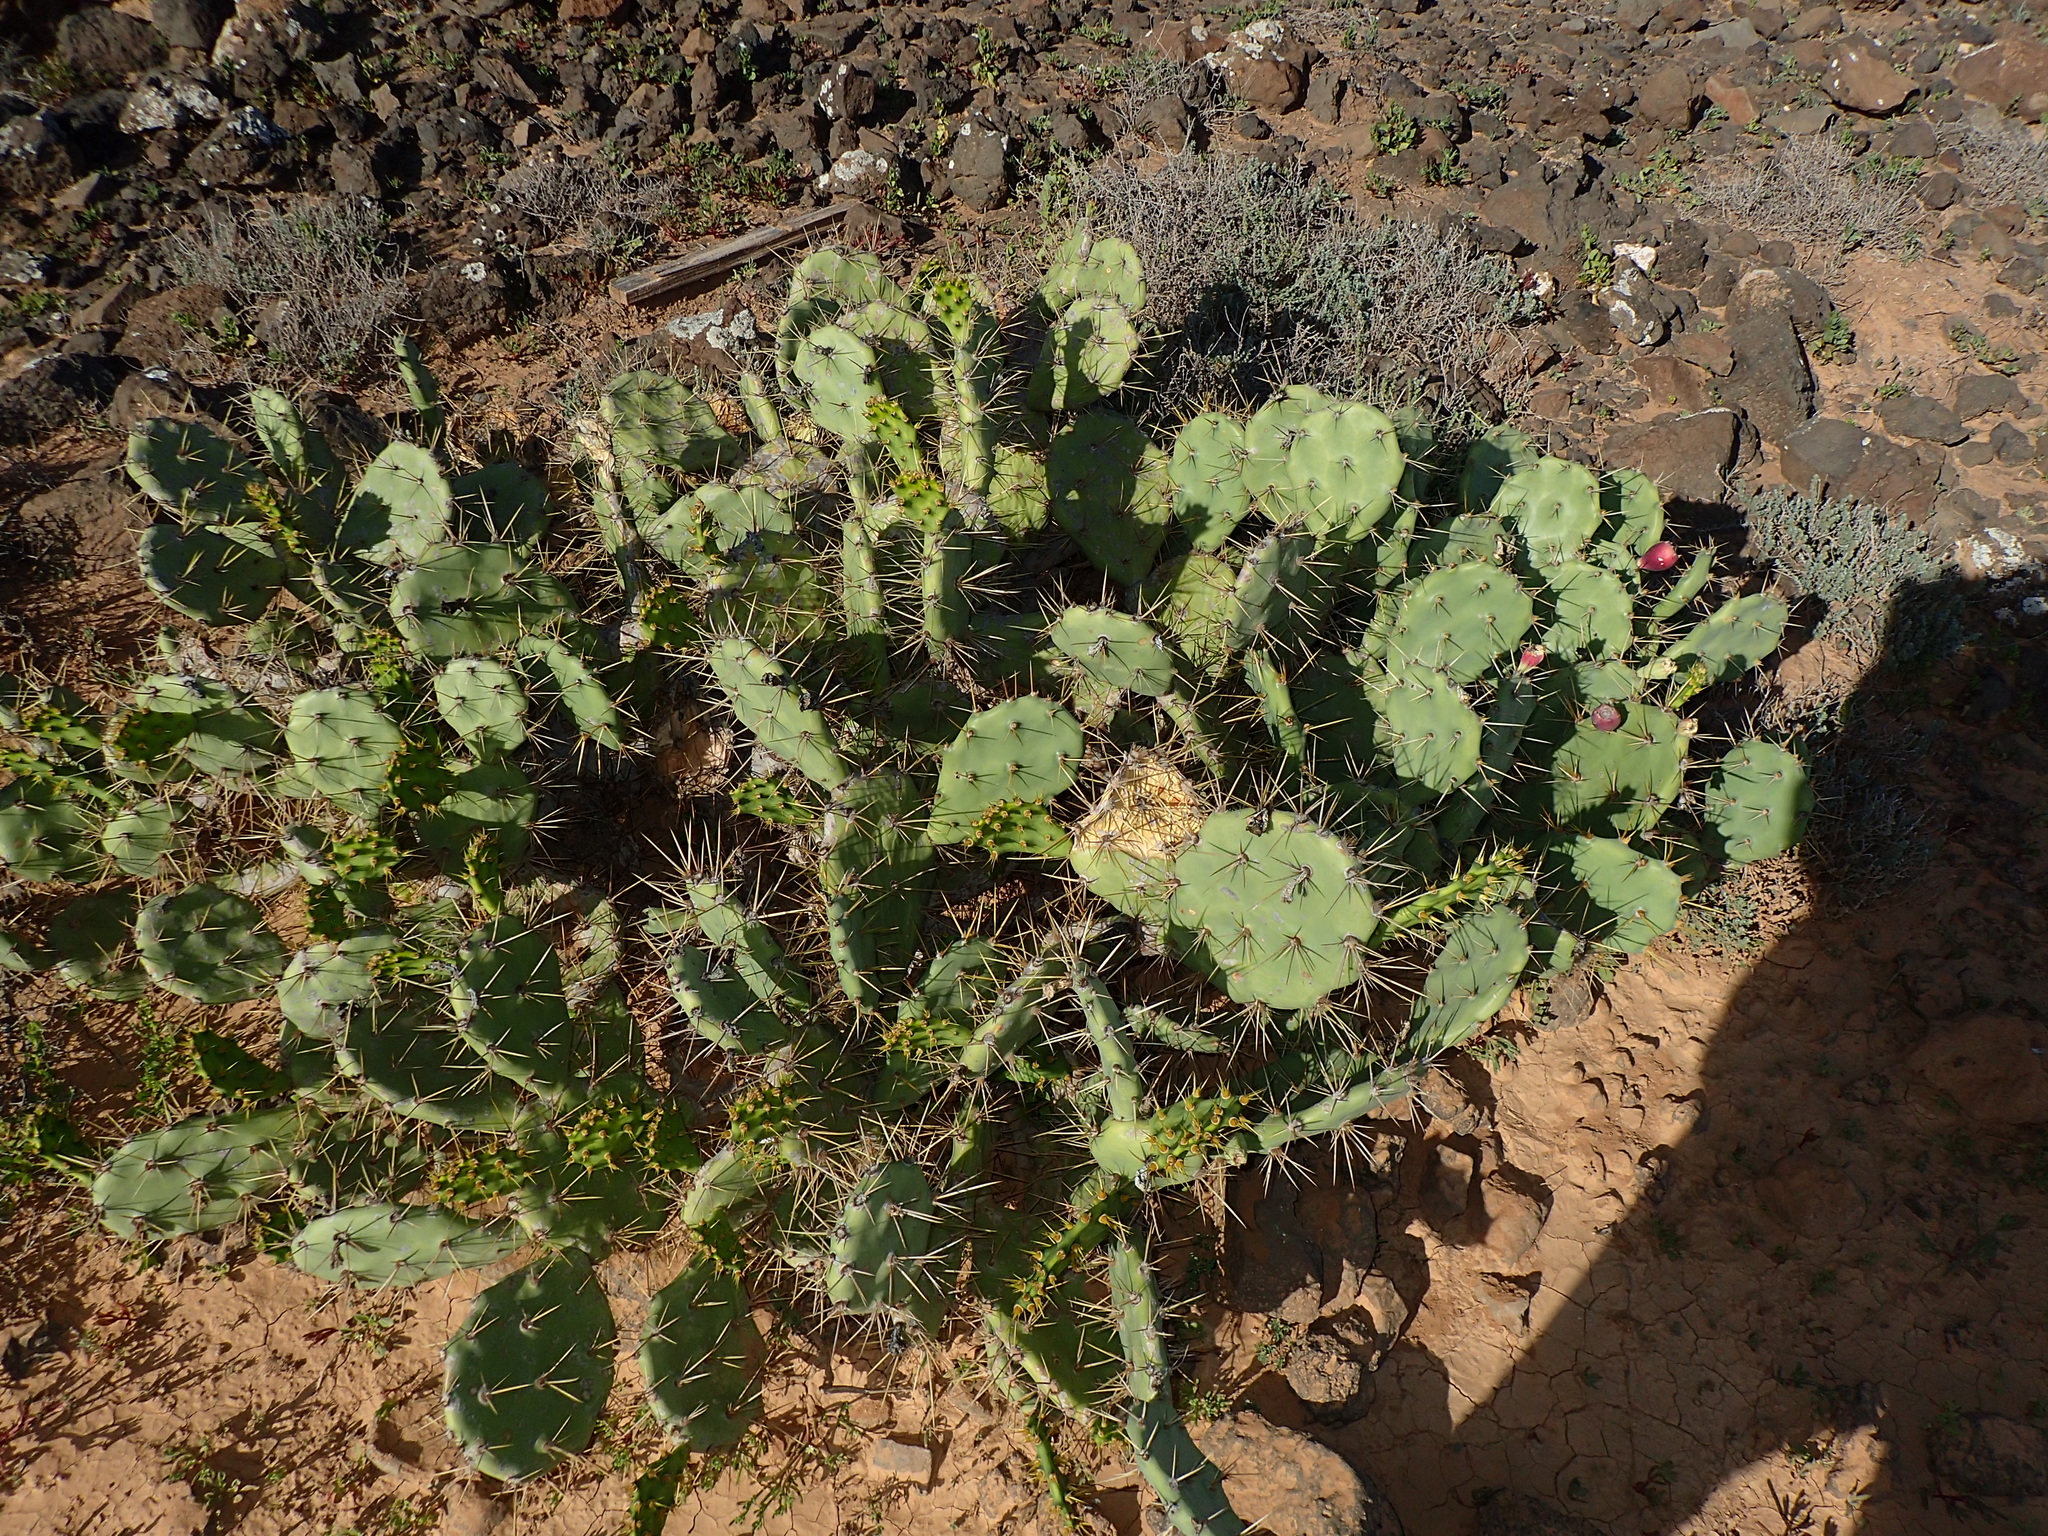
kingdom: Plantae
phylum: Tracheophyta
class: Magnoliopsida
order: Caryophyllales
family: Cactaceae
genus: Opuntia
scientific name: Opuntia stricta
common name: Erect pricklypear
